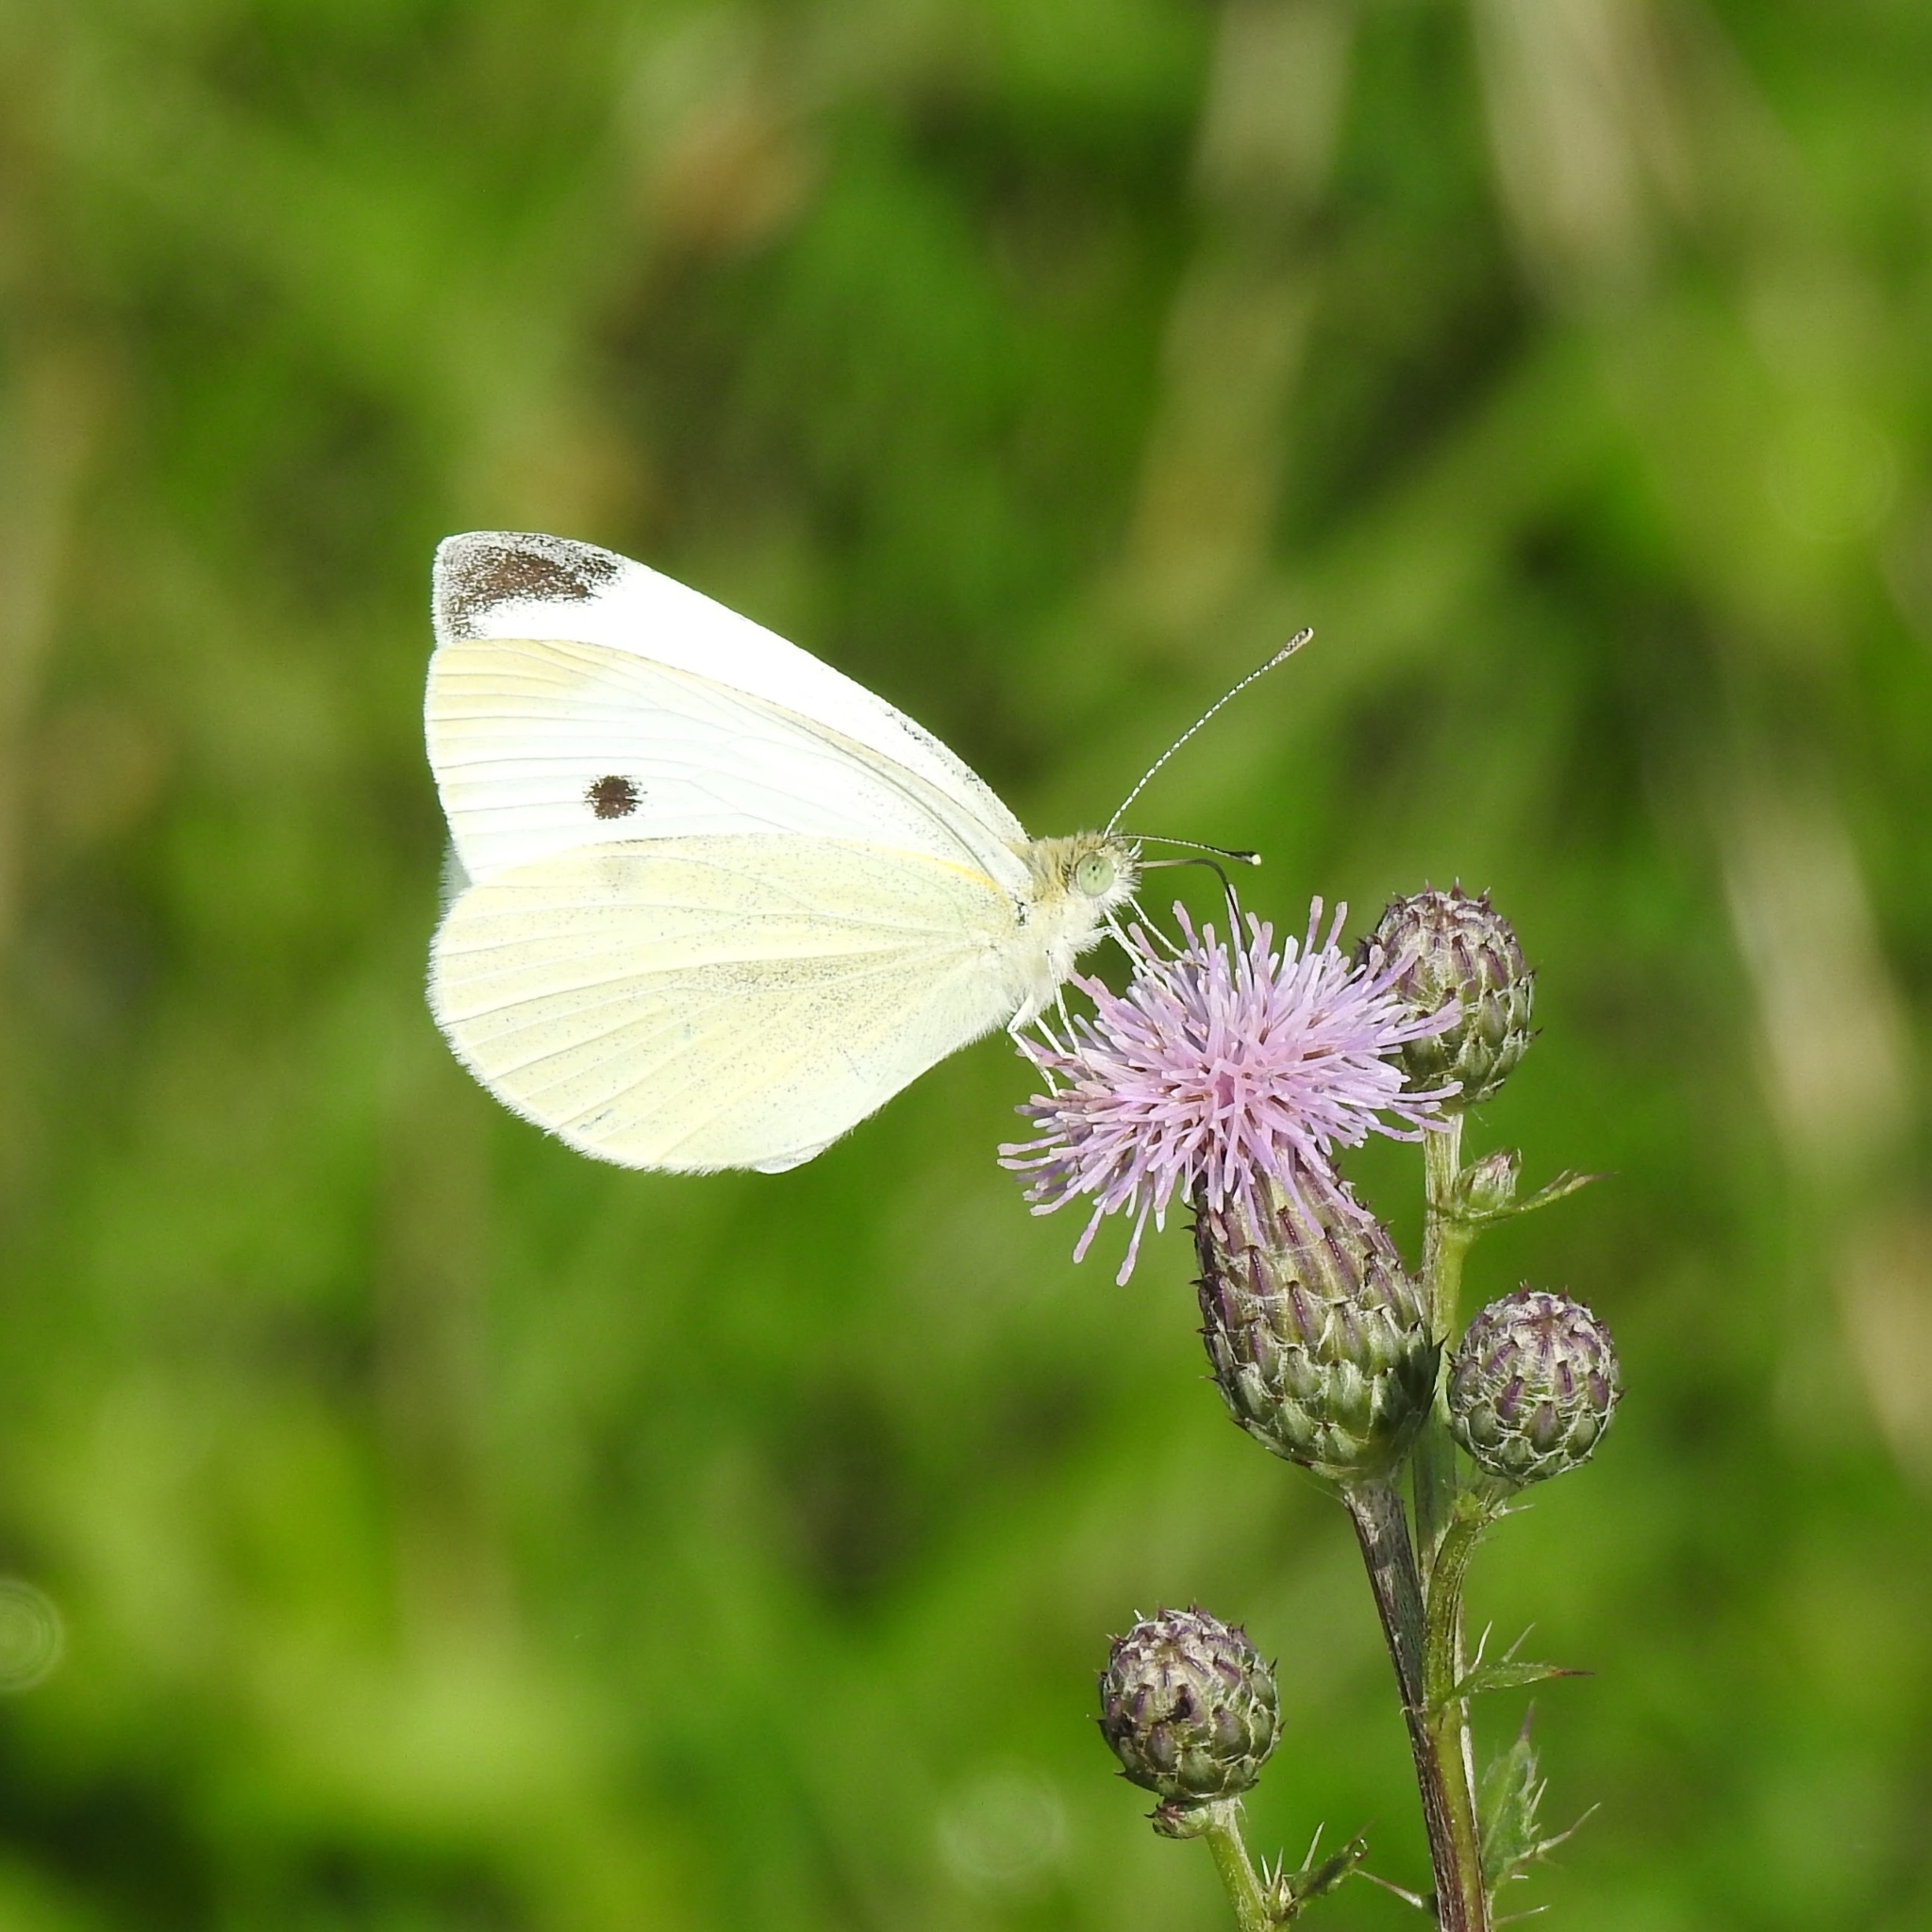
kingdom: Animalia
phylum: Arthropoda
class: Insecta
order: Lepidoptera
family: Pieridae
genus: Pieris
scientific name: Pieris rapae
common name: Small white
